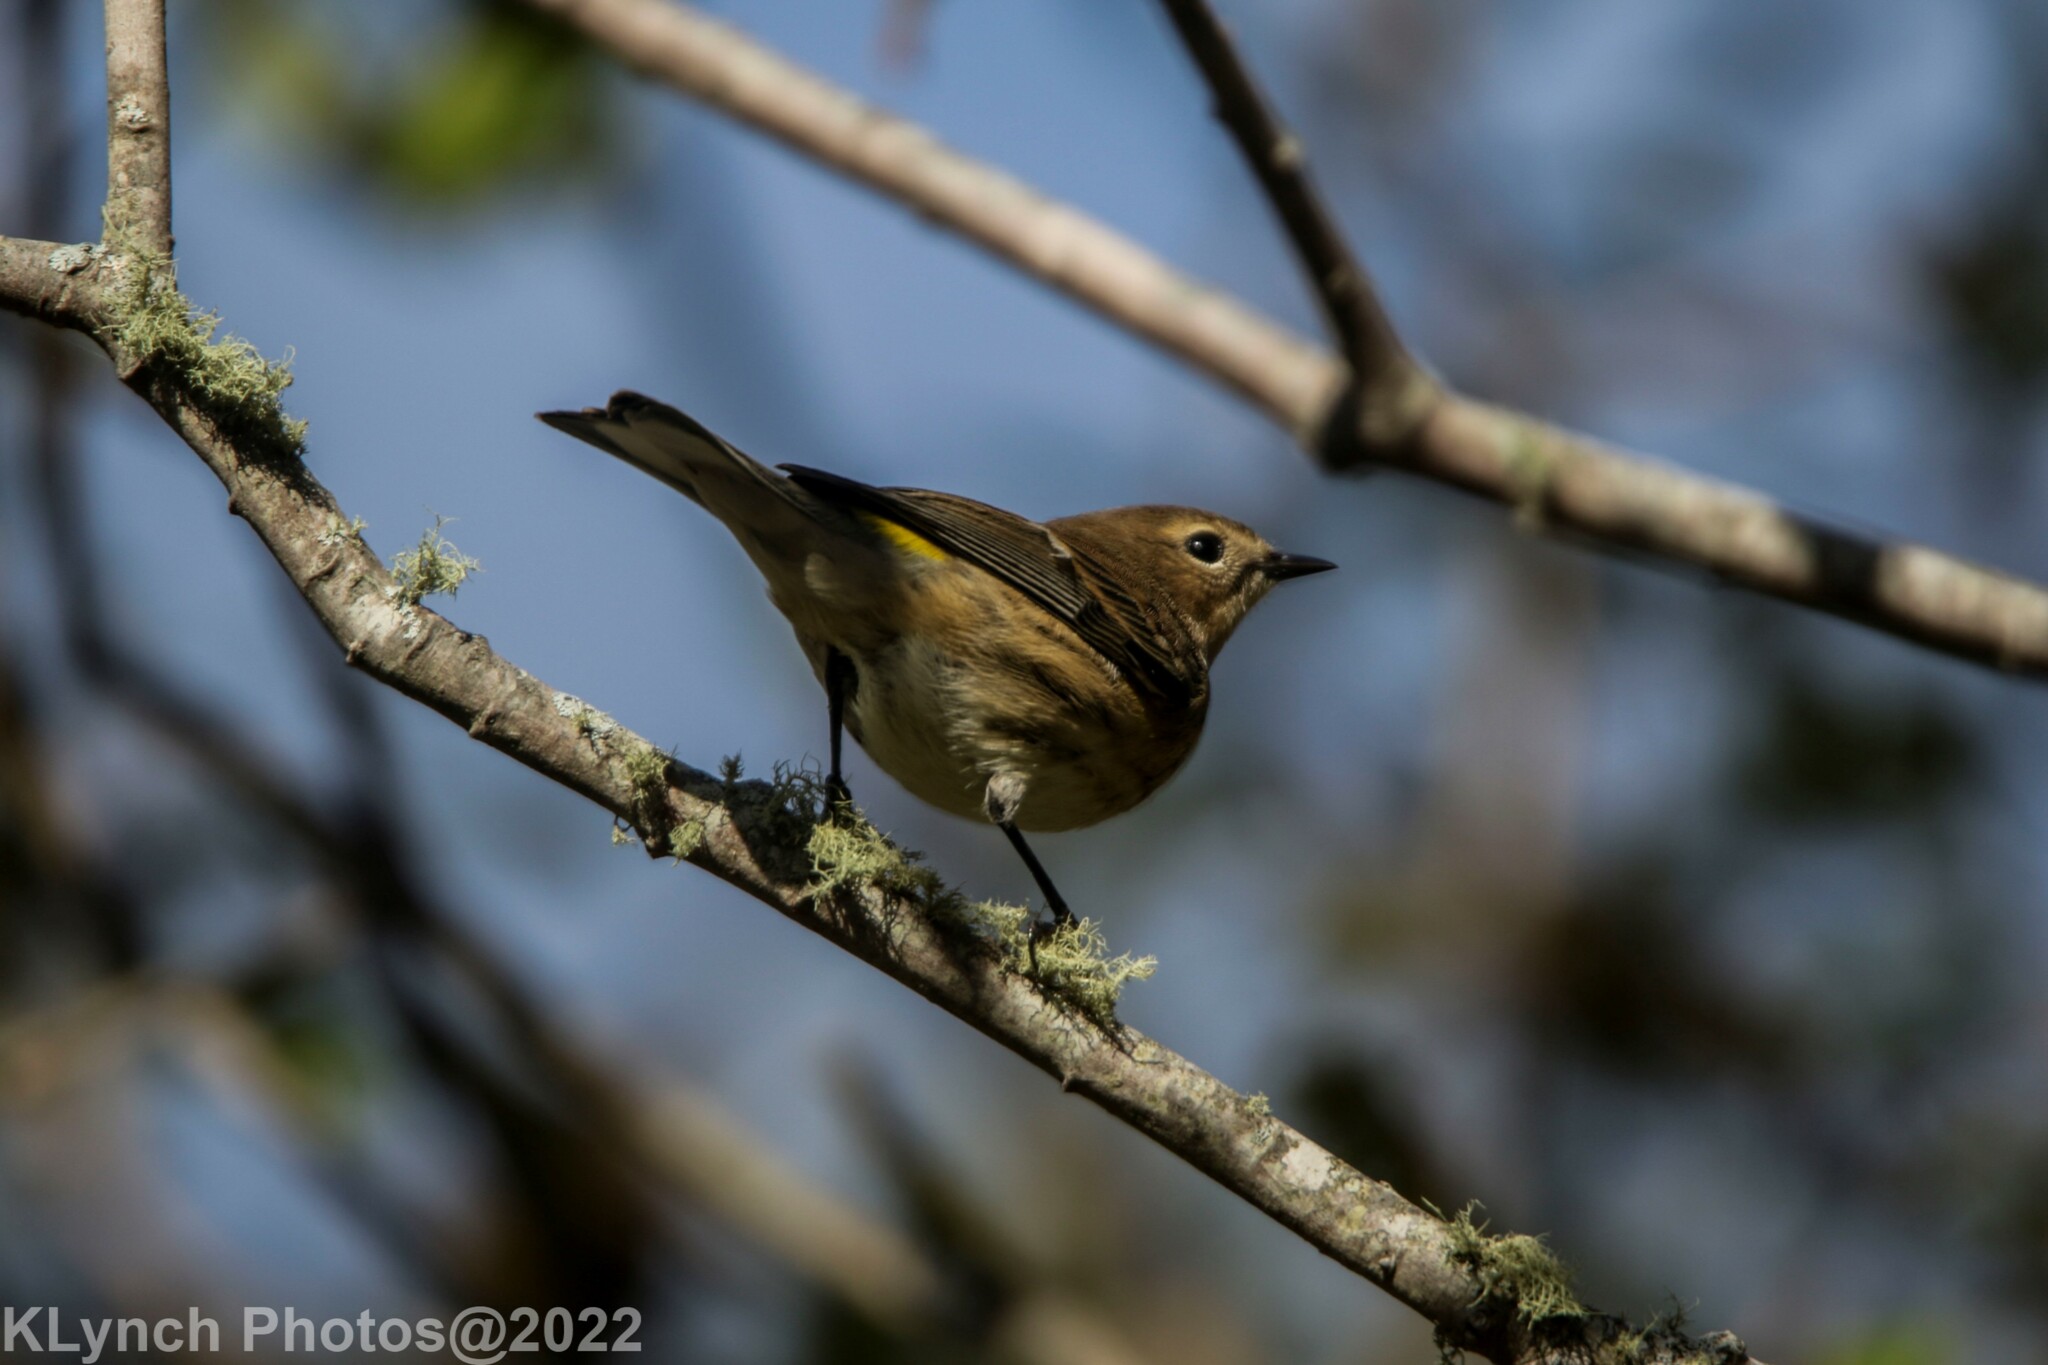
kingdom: Animalia
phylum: Chordata
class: Aves
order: Passeriformes
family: Parulidae
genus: Setophaga
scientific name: Setophaga coronata
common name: Myrtle warbler
